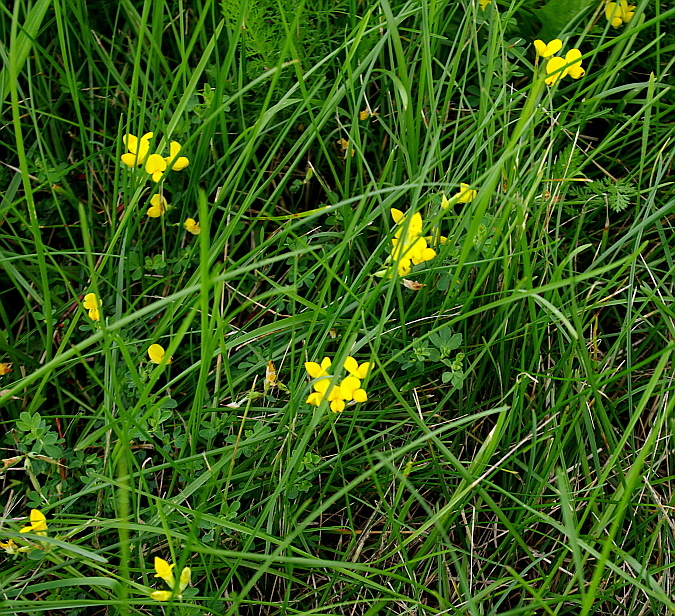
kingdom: Plantae
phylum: Tracheophyta
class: Magnoliopsida
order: Fabales
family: Fabaceae
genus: Lotus
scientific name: Lotus corniculatus
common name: Common bird's-foot-trefoil
